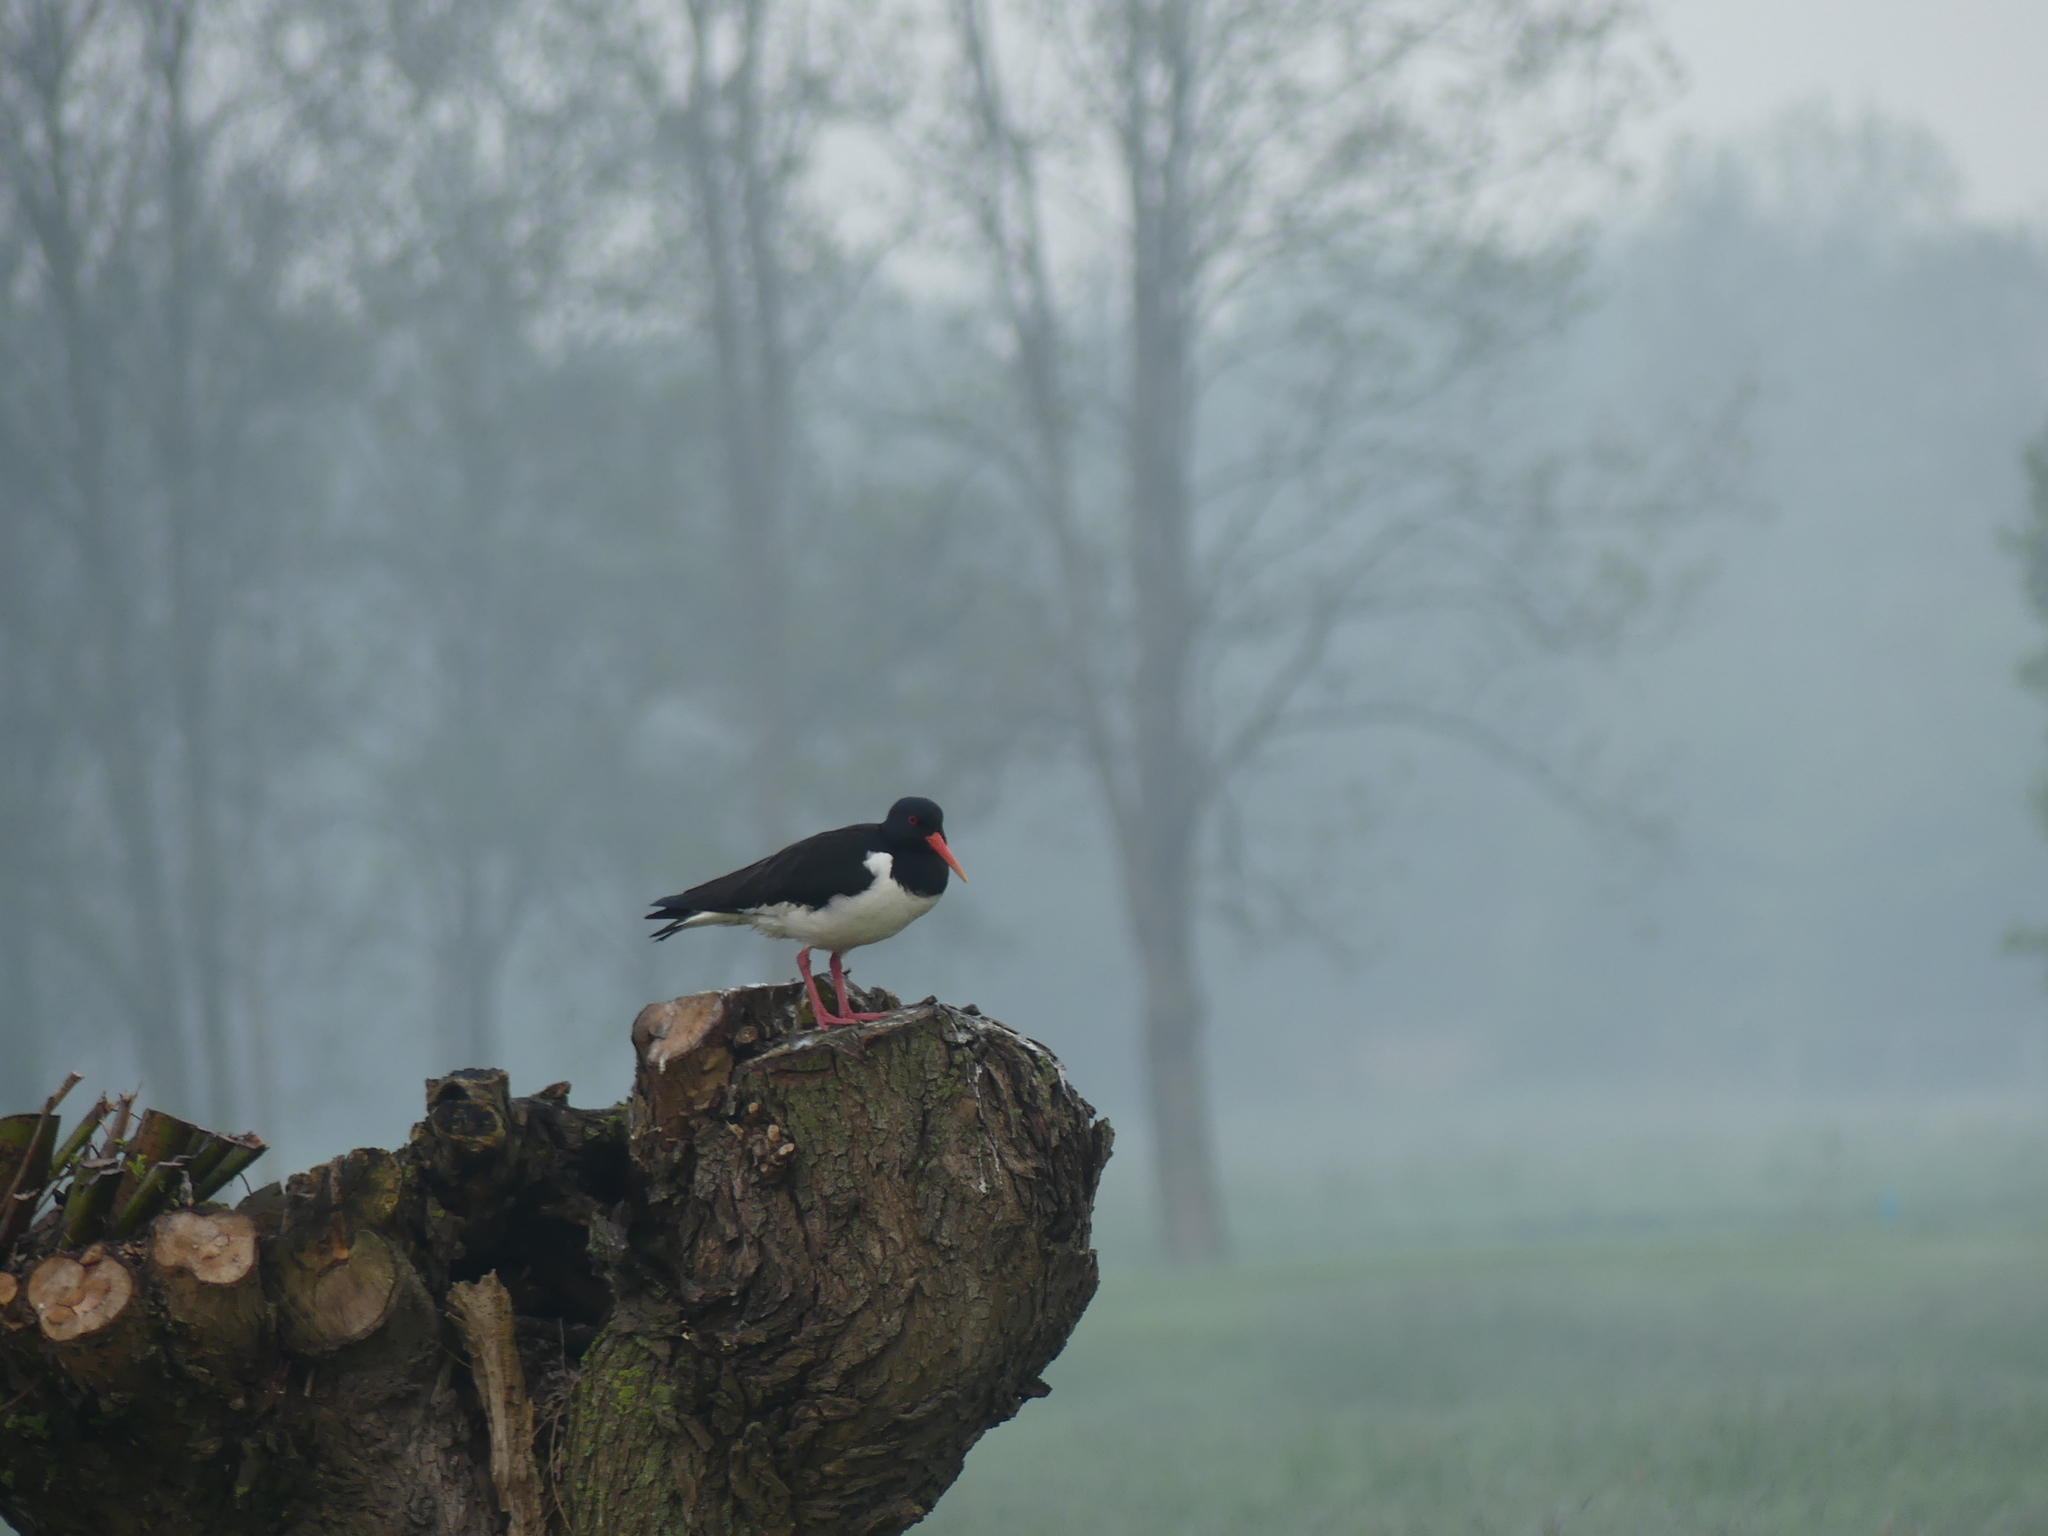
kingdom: Animalia
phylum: Chordata
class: Aves
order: Charadriiformes
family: Haematopodidae
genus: Haematopus
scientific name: Haematopus ostralegus
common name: Eurasian oystercatcher
